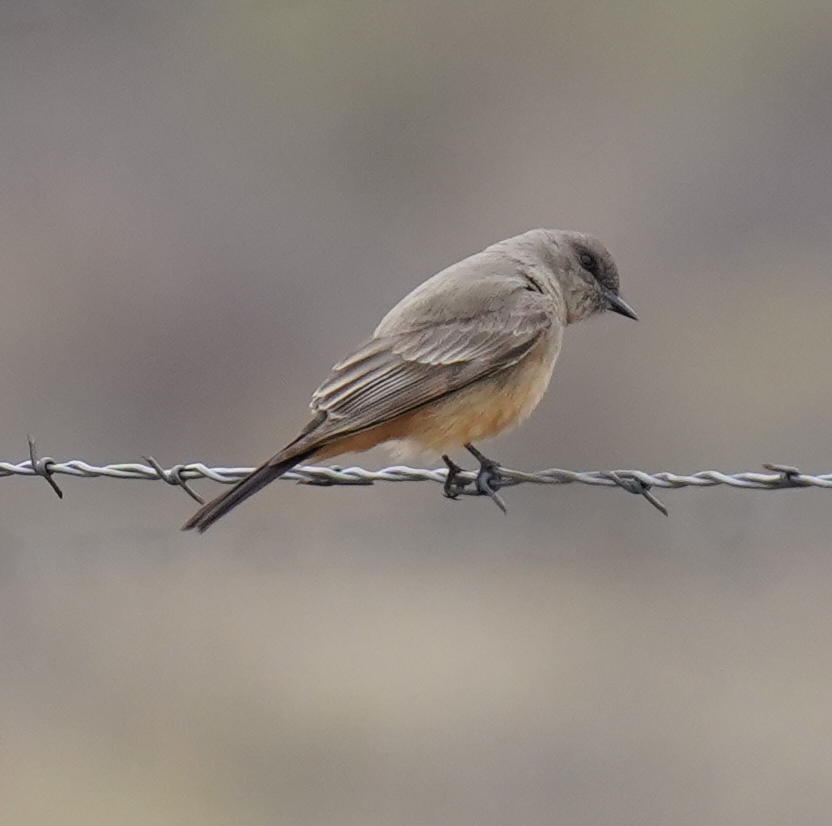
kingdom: Animalia
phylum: Chordata
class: Aves
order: Passeriformes
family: Tyrannidae
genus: Sayornis
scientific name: Sayornis saya
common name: Say's phoebe
